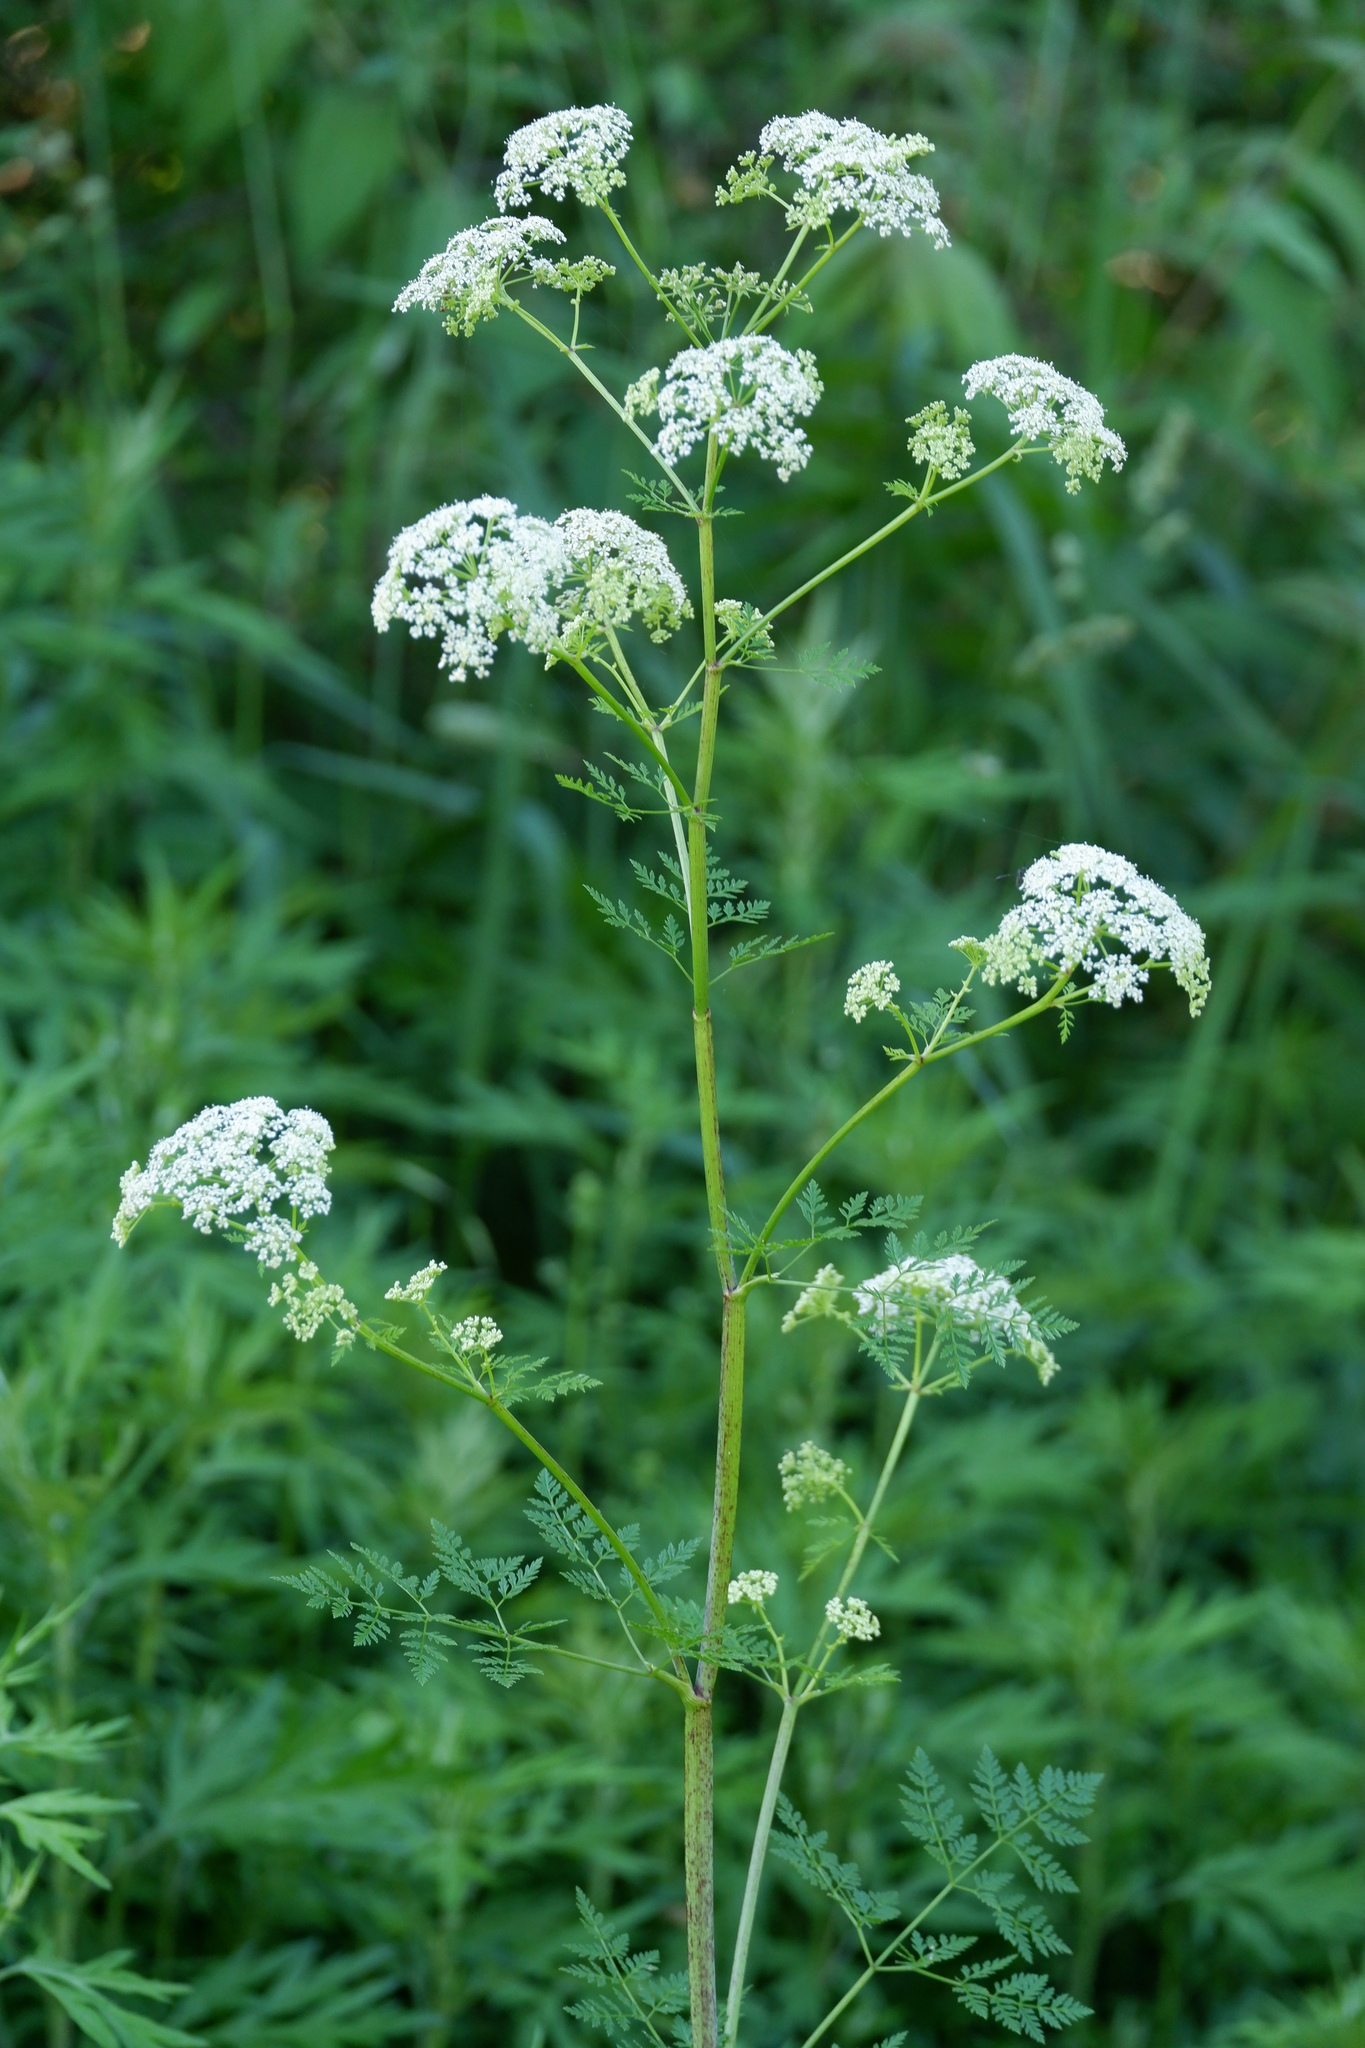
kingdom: Plantae
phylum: Tracheophyta
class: Magnoliopsida
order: Apiales
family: Apiaceae
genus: Conium
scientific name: Conium maculatum
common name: Hemlock
